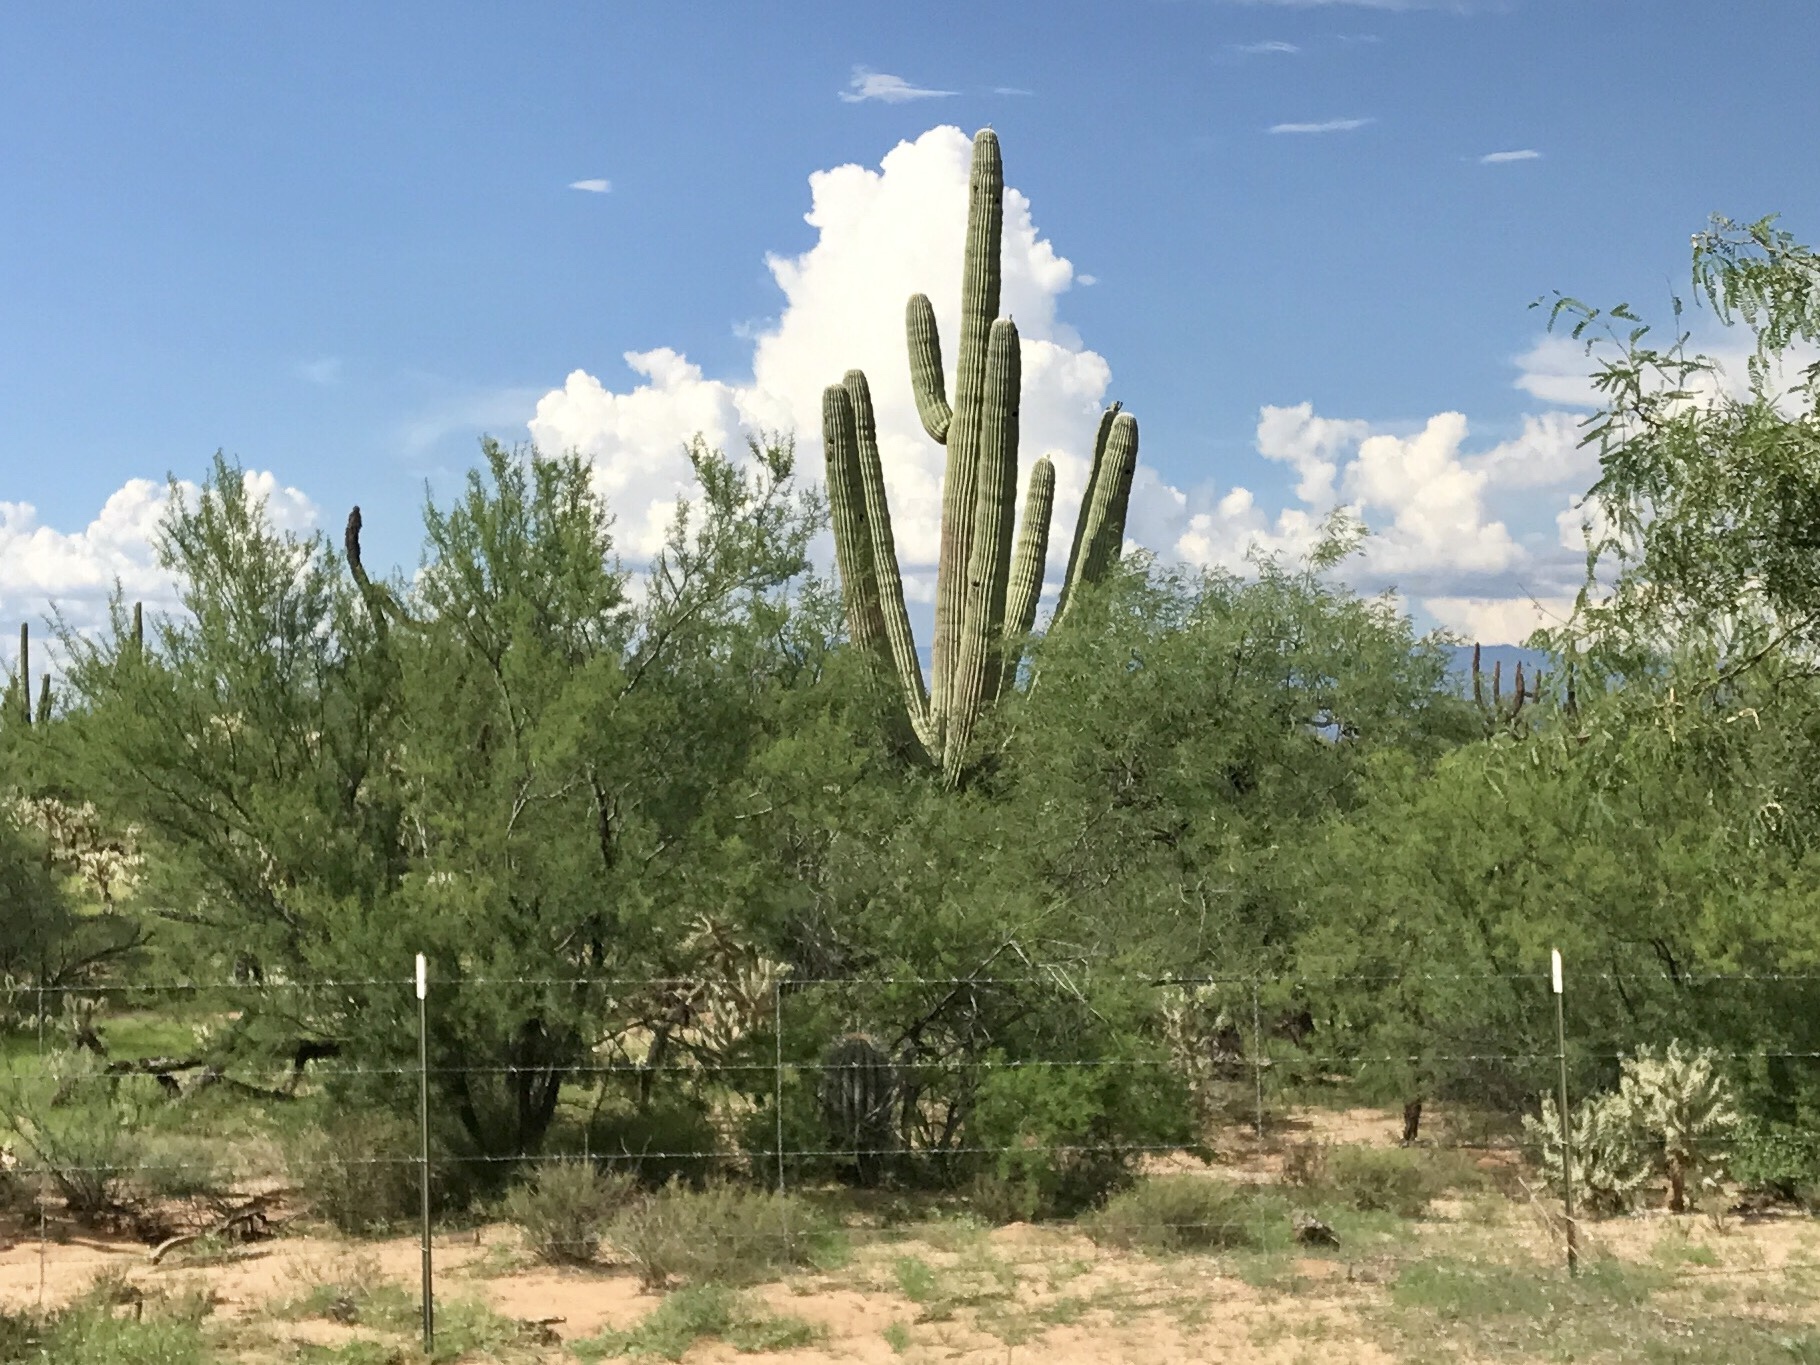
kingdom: Plantae
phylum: Tracheophyta
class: Magnoliopsida
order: Caryophyllales
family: Cactaceae
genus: Carnegiea
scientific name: Carnegiea gigantea
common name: Saguaro
